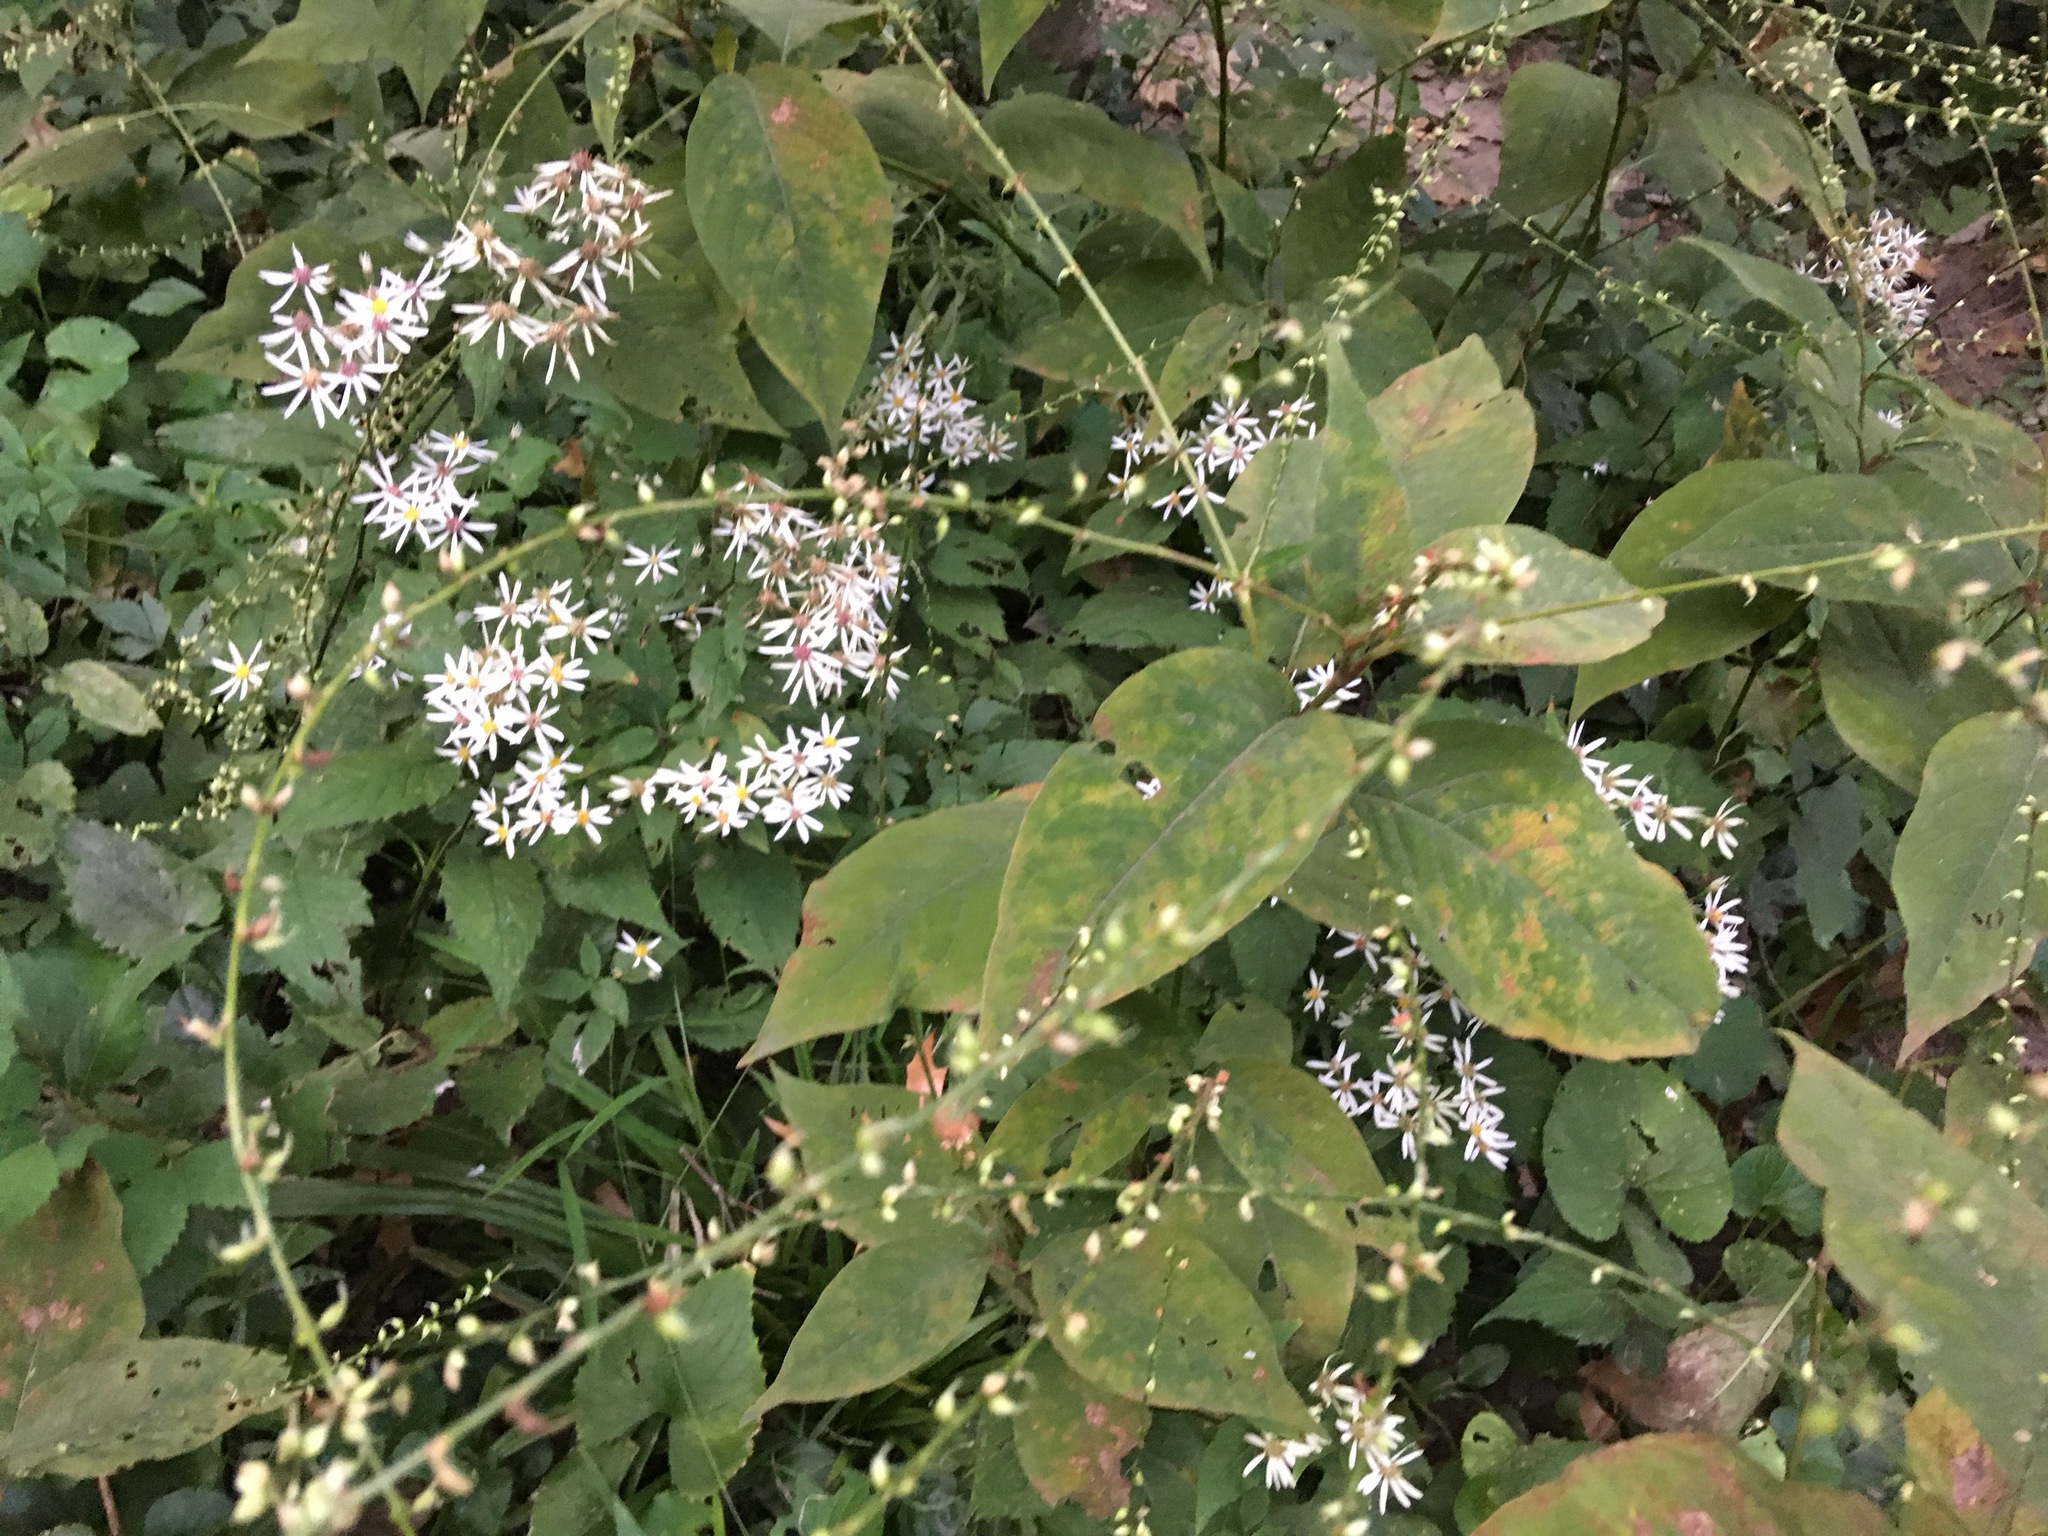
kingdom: Plantae
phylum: Tracheophyta
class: Magnoliopsida
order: Caryophyllales
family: Polygonaceae
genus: Persicaria
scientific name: Persicaria virginiana
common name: Jumpseed
